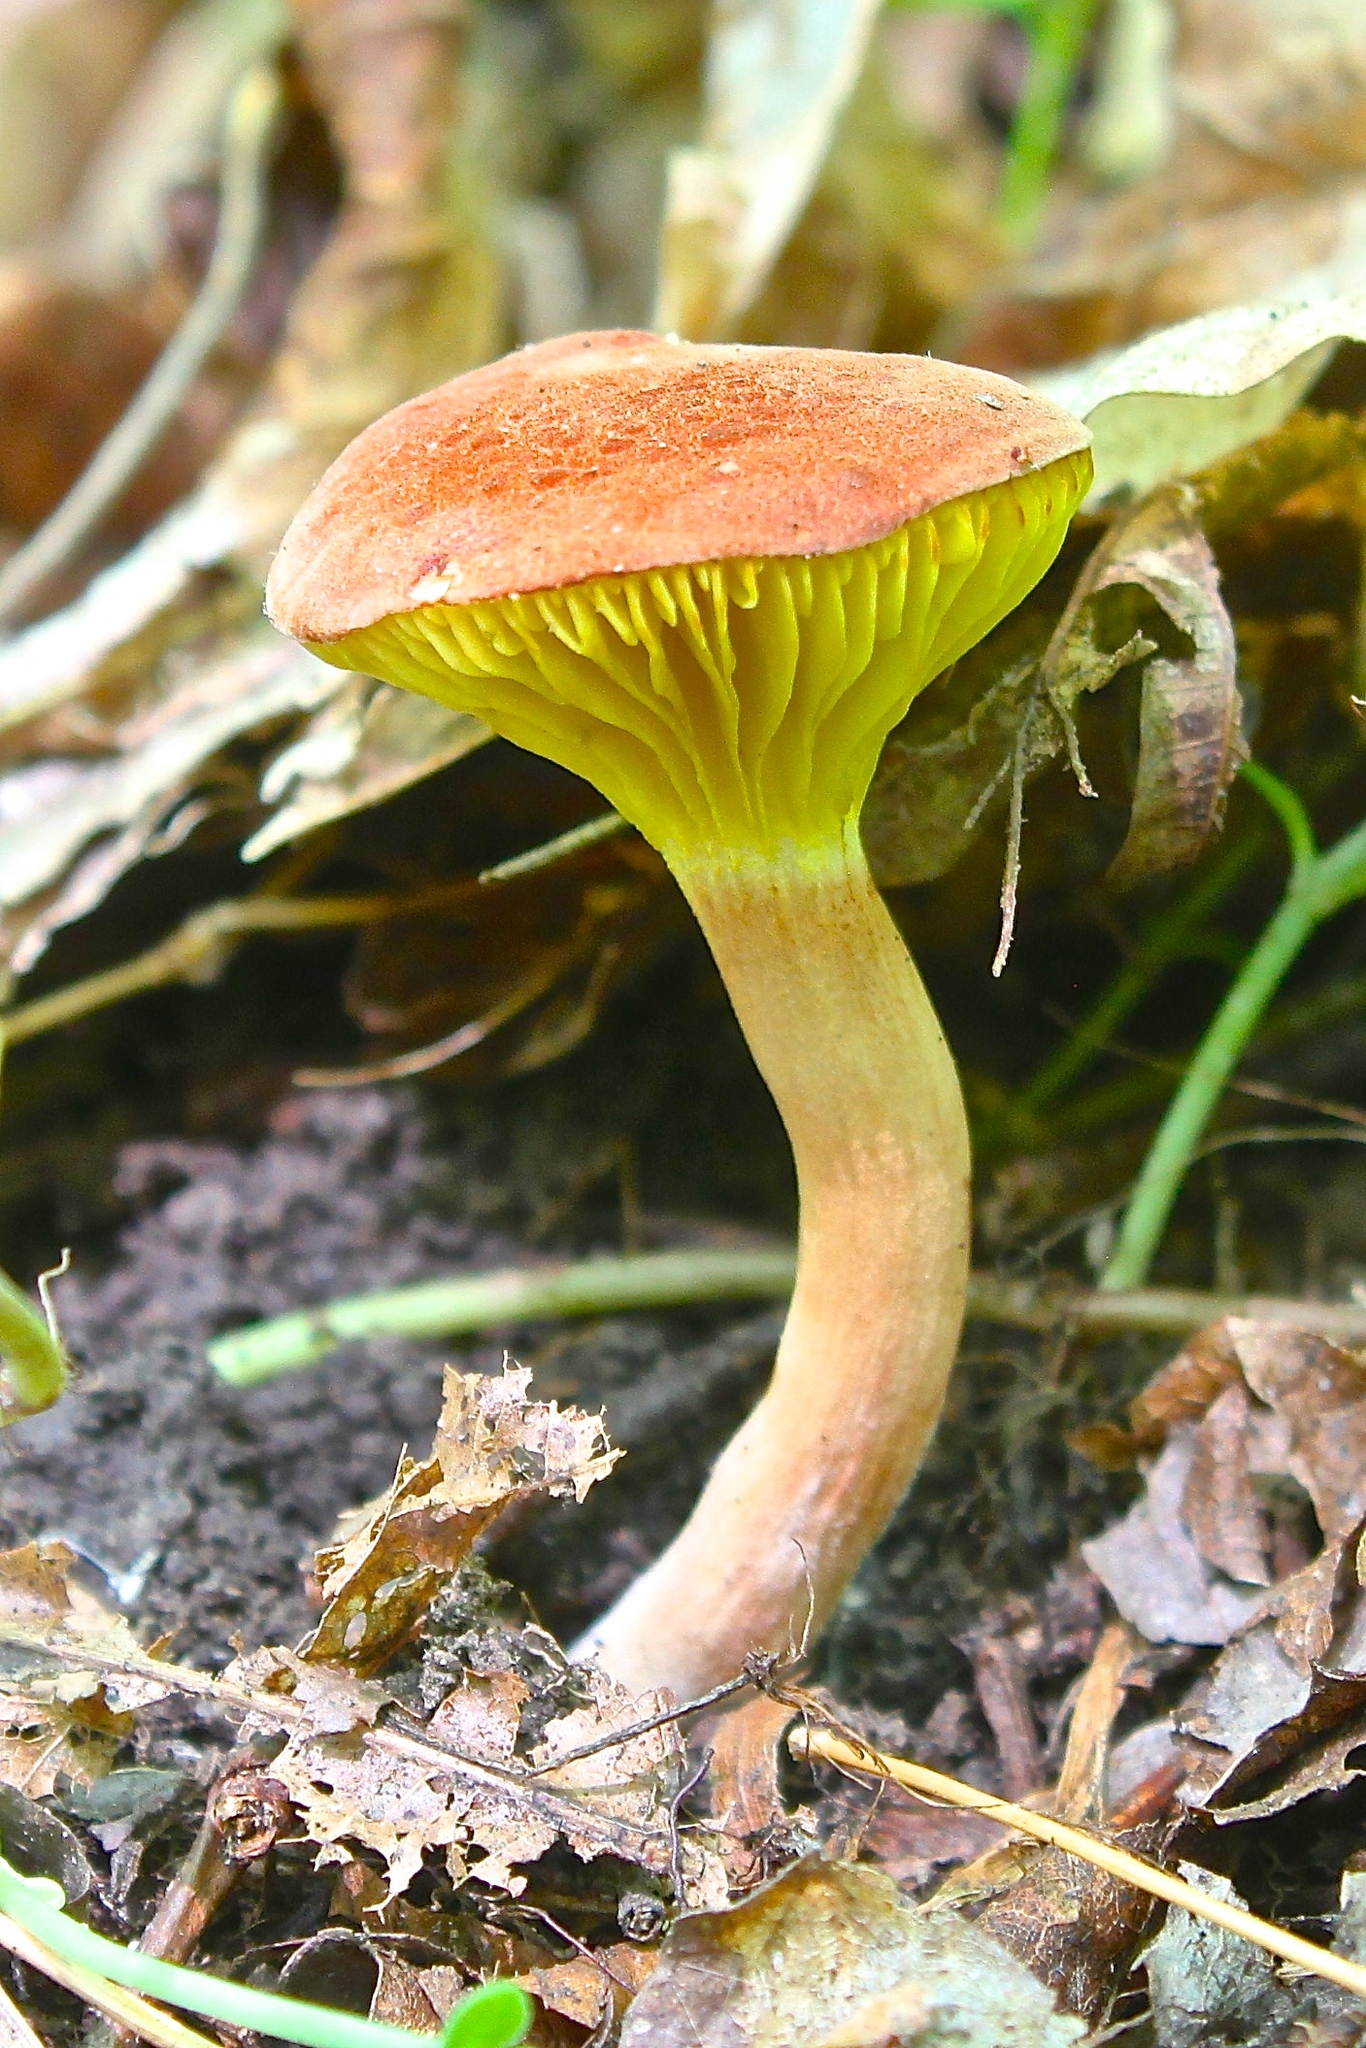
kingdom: Fungi
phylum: Basidiomycota
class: Agaricomycetes
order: Boletales
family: Boletaceae
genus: Phylloporus
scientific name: Phylloporus rhodoxanthus
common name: Golden gilled bolete
